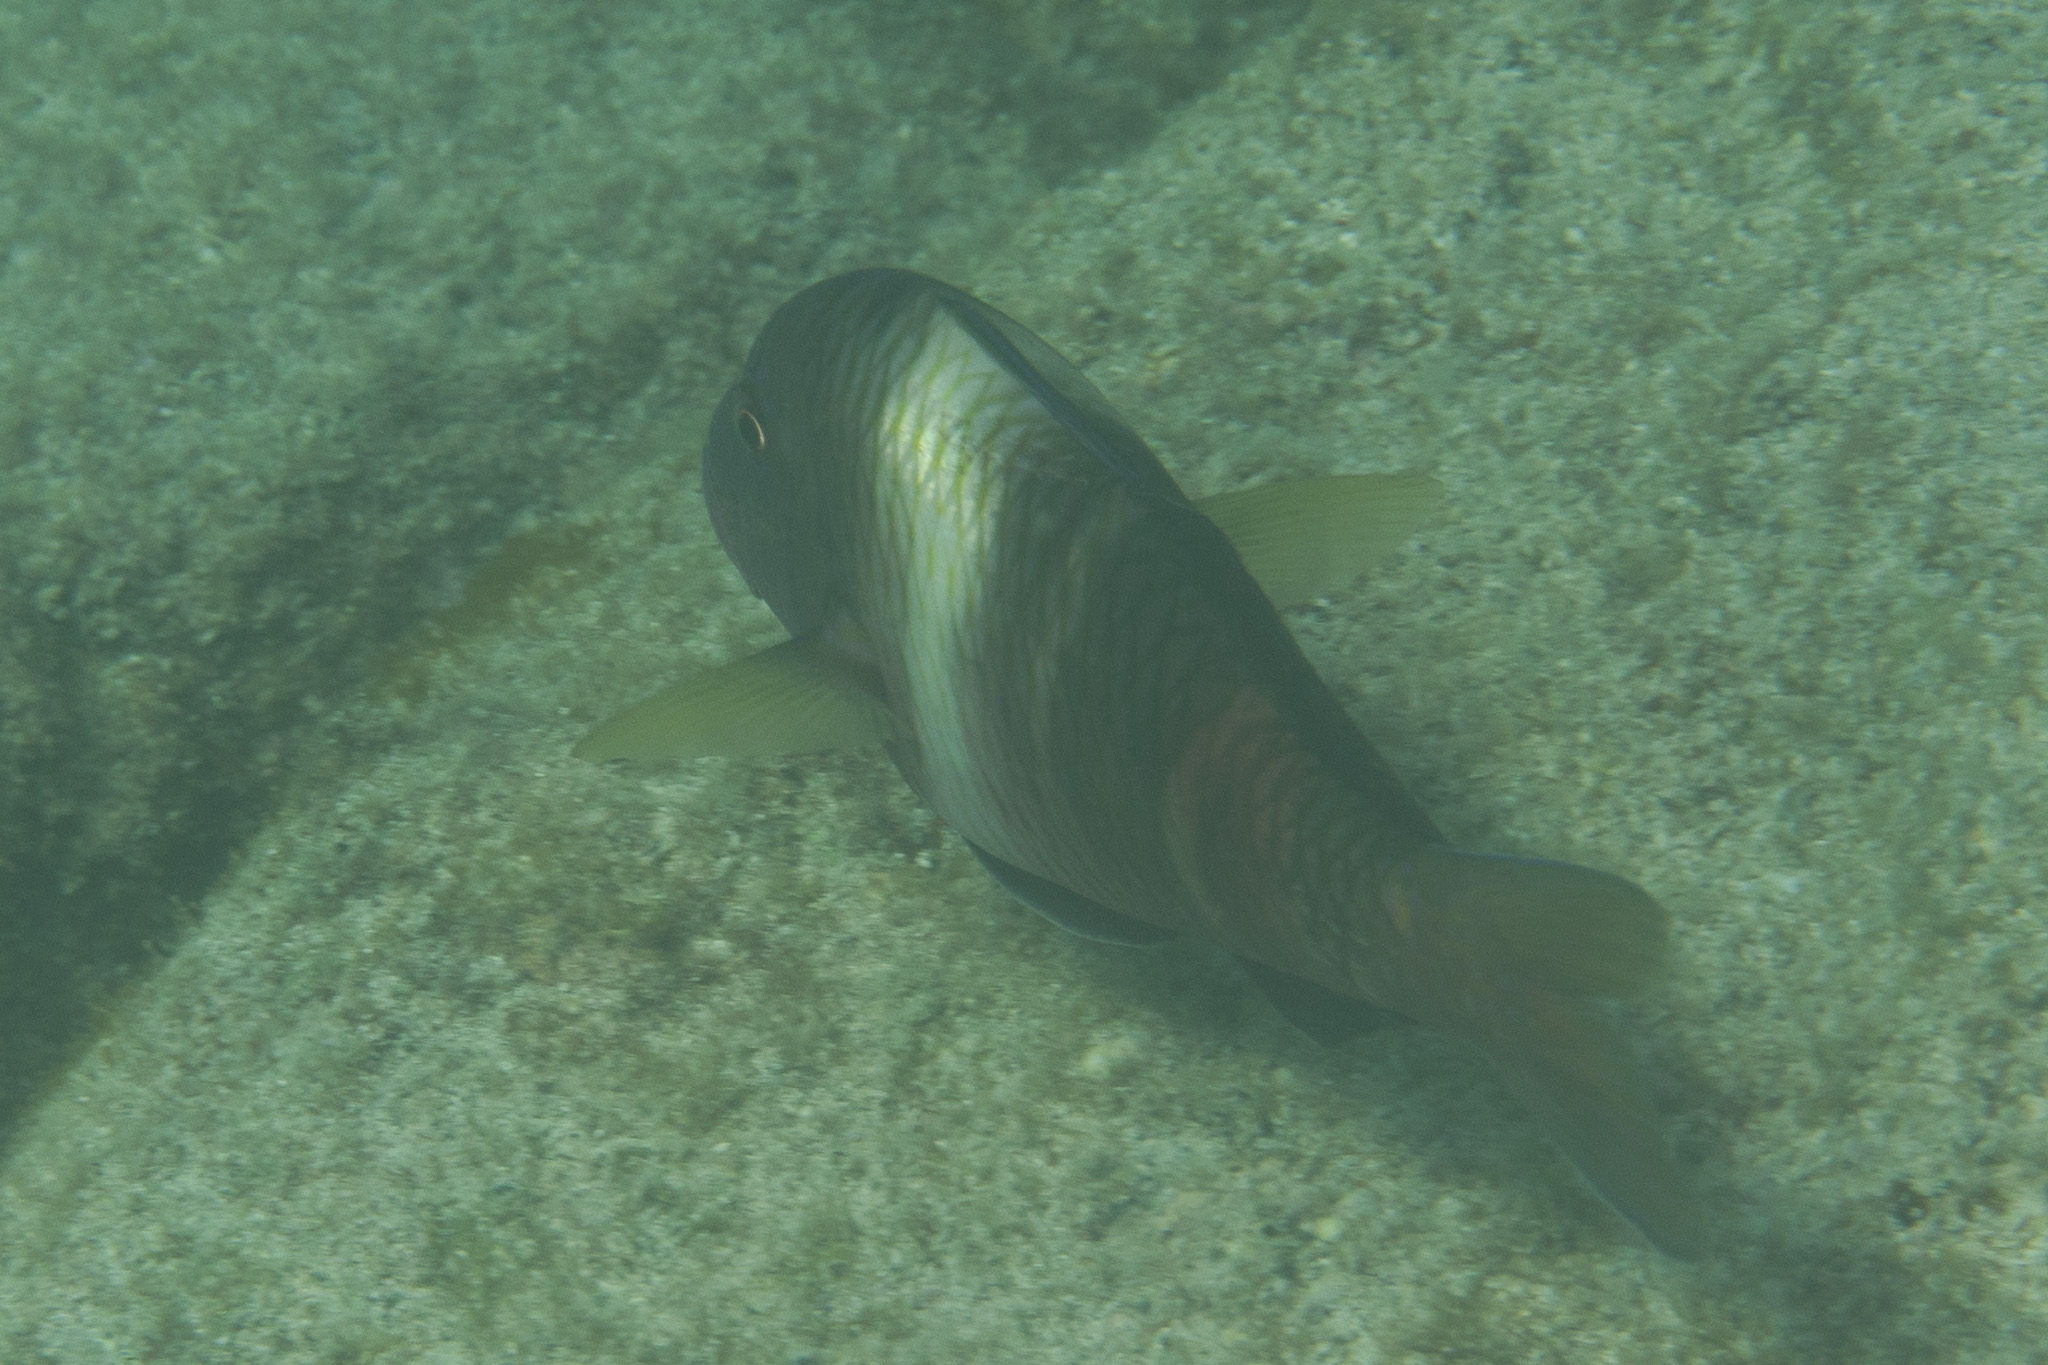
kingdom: Animalia
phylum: Chordata
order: Perciformes
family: Mullidae
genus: Parupeneus
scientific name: Parupeneus multifasciatus
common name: Manybar goatfish
